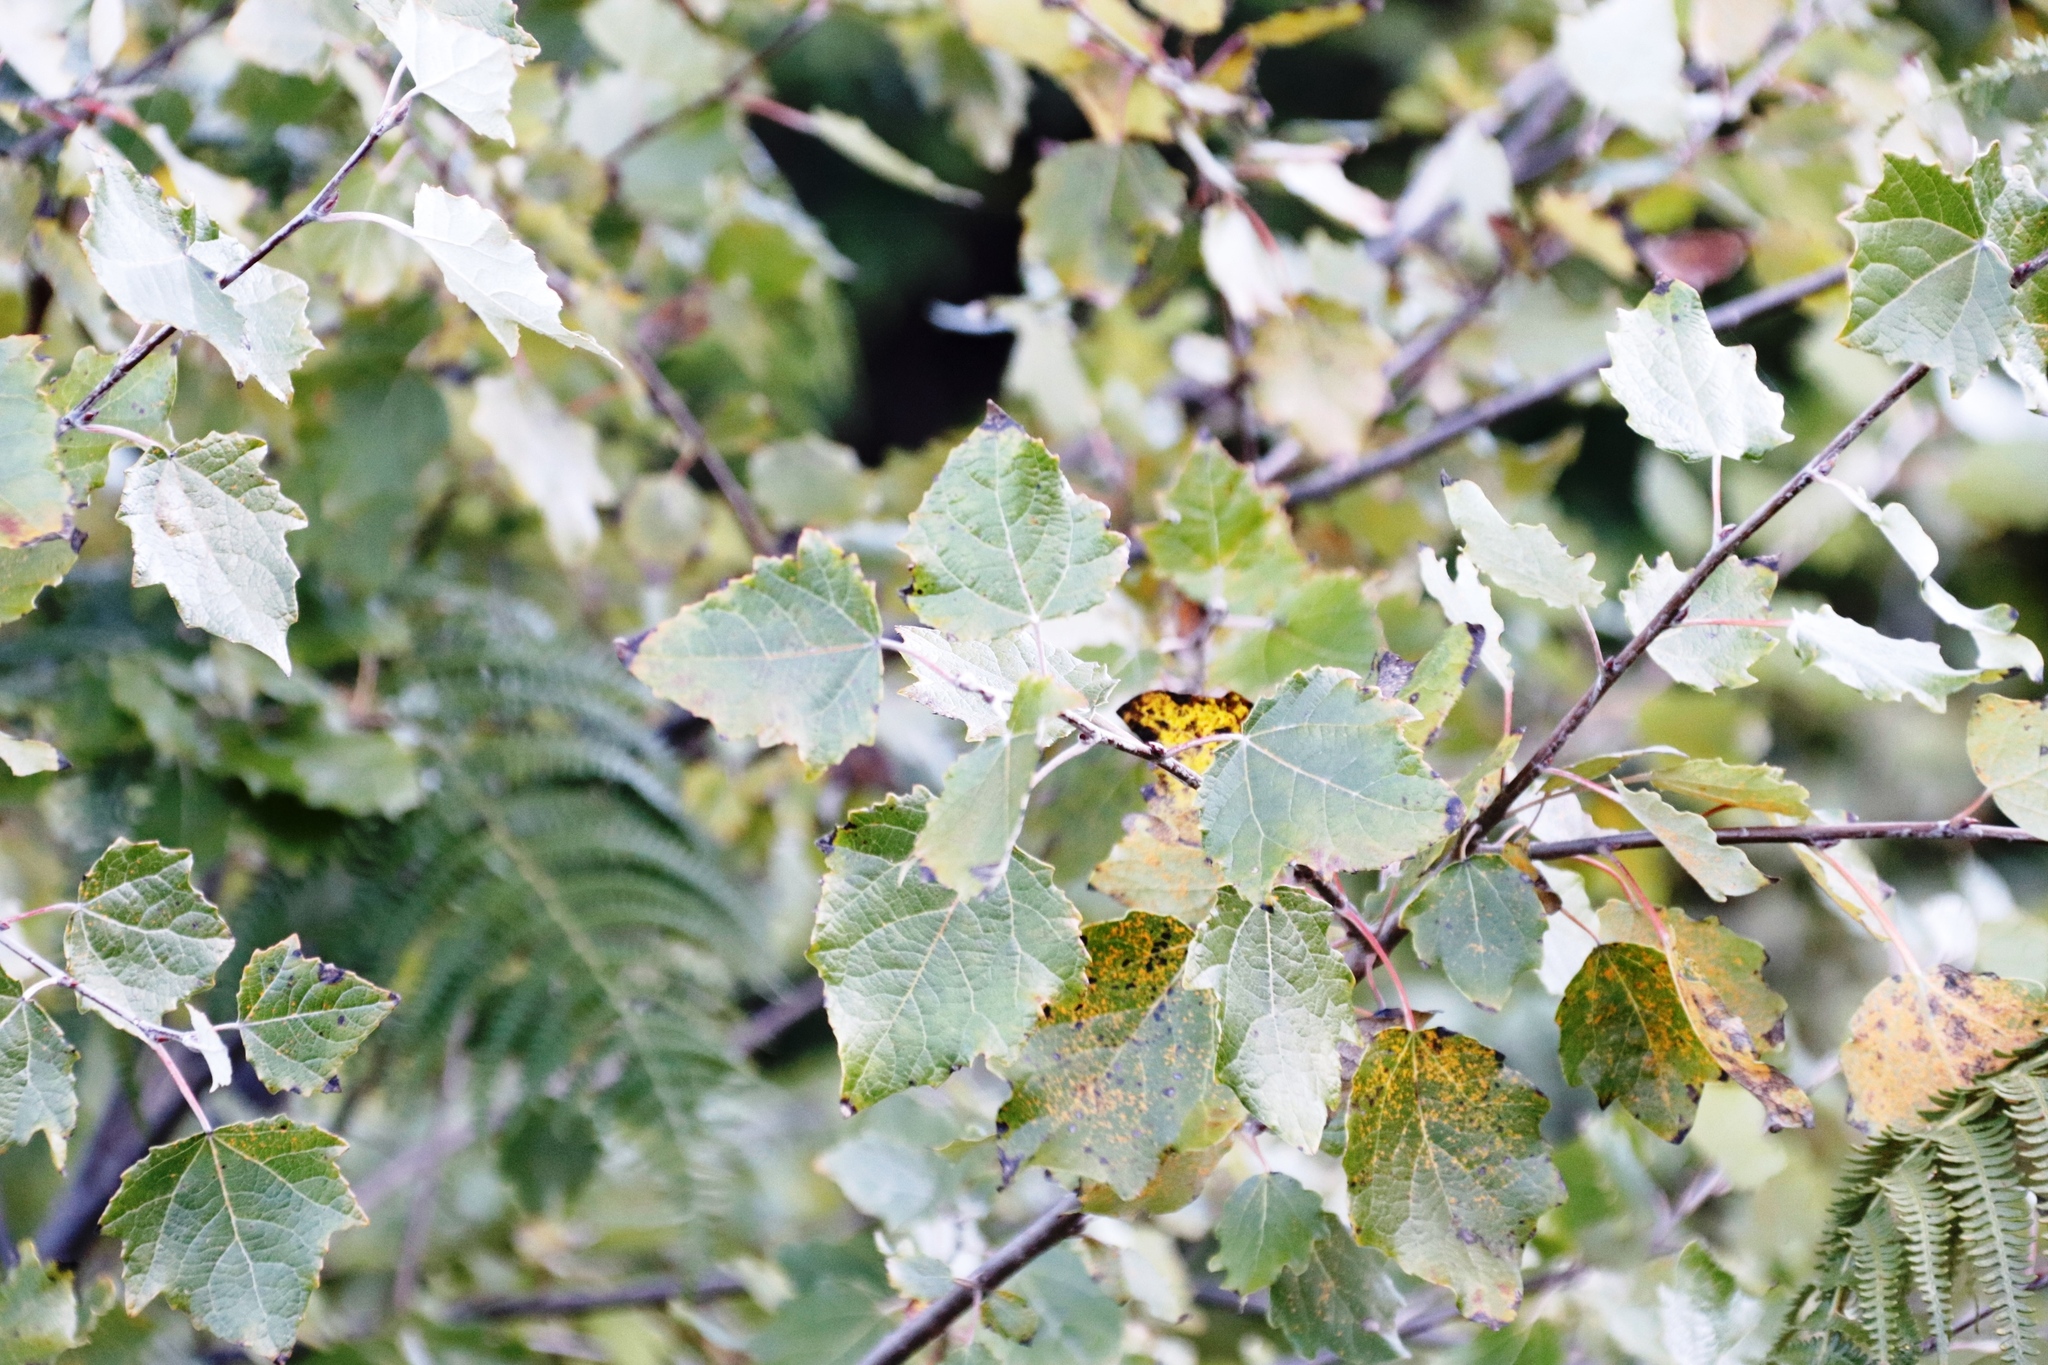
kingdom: Plantae
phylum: Tracheophyta
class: Magnoliopsida
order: Malpighiales
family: Salicaceae
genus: Populus
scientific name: Populus canescens
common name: Gray poplar
